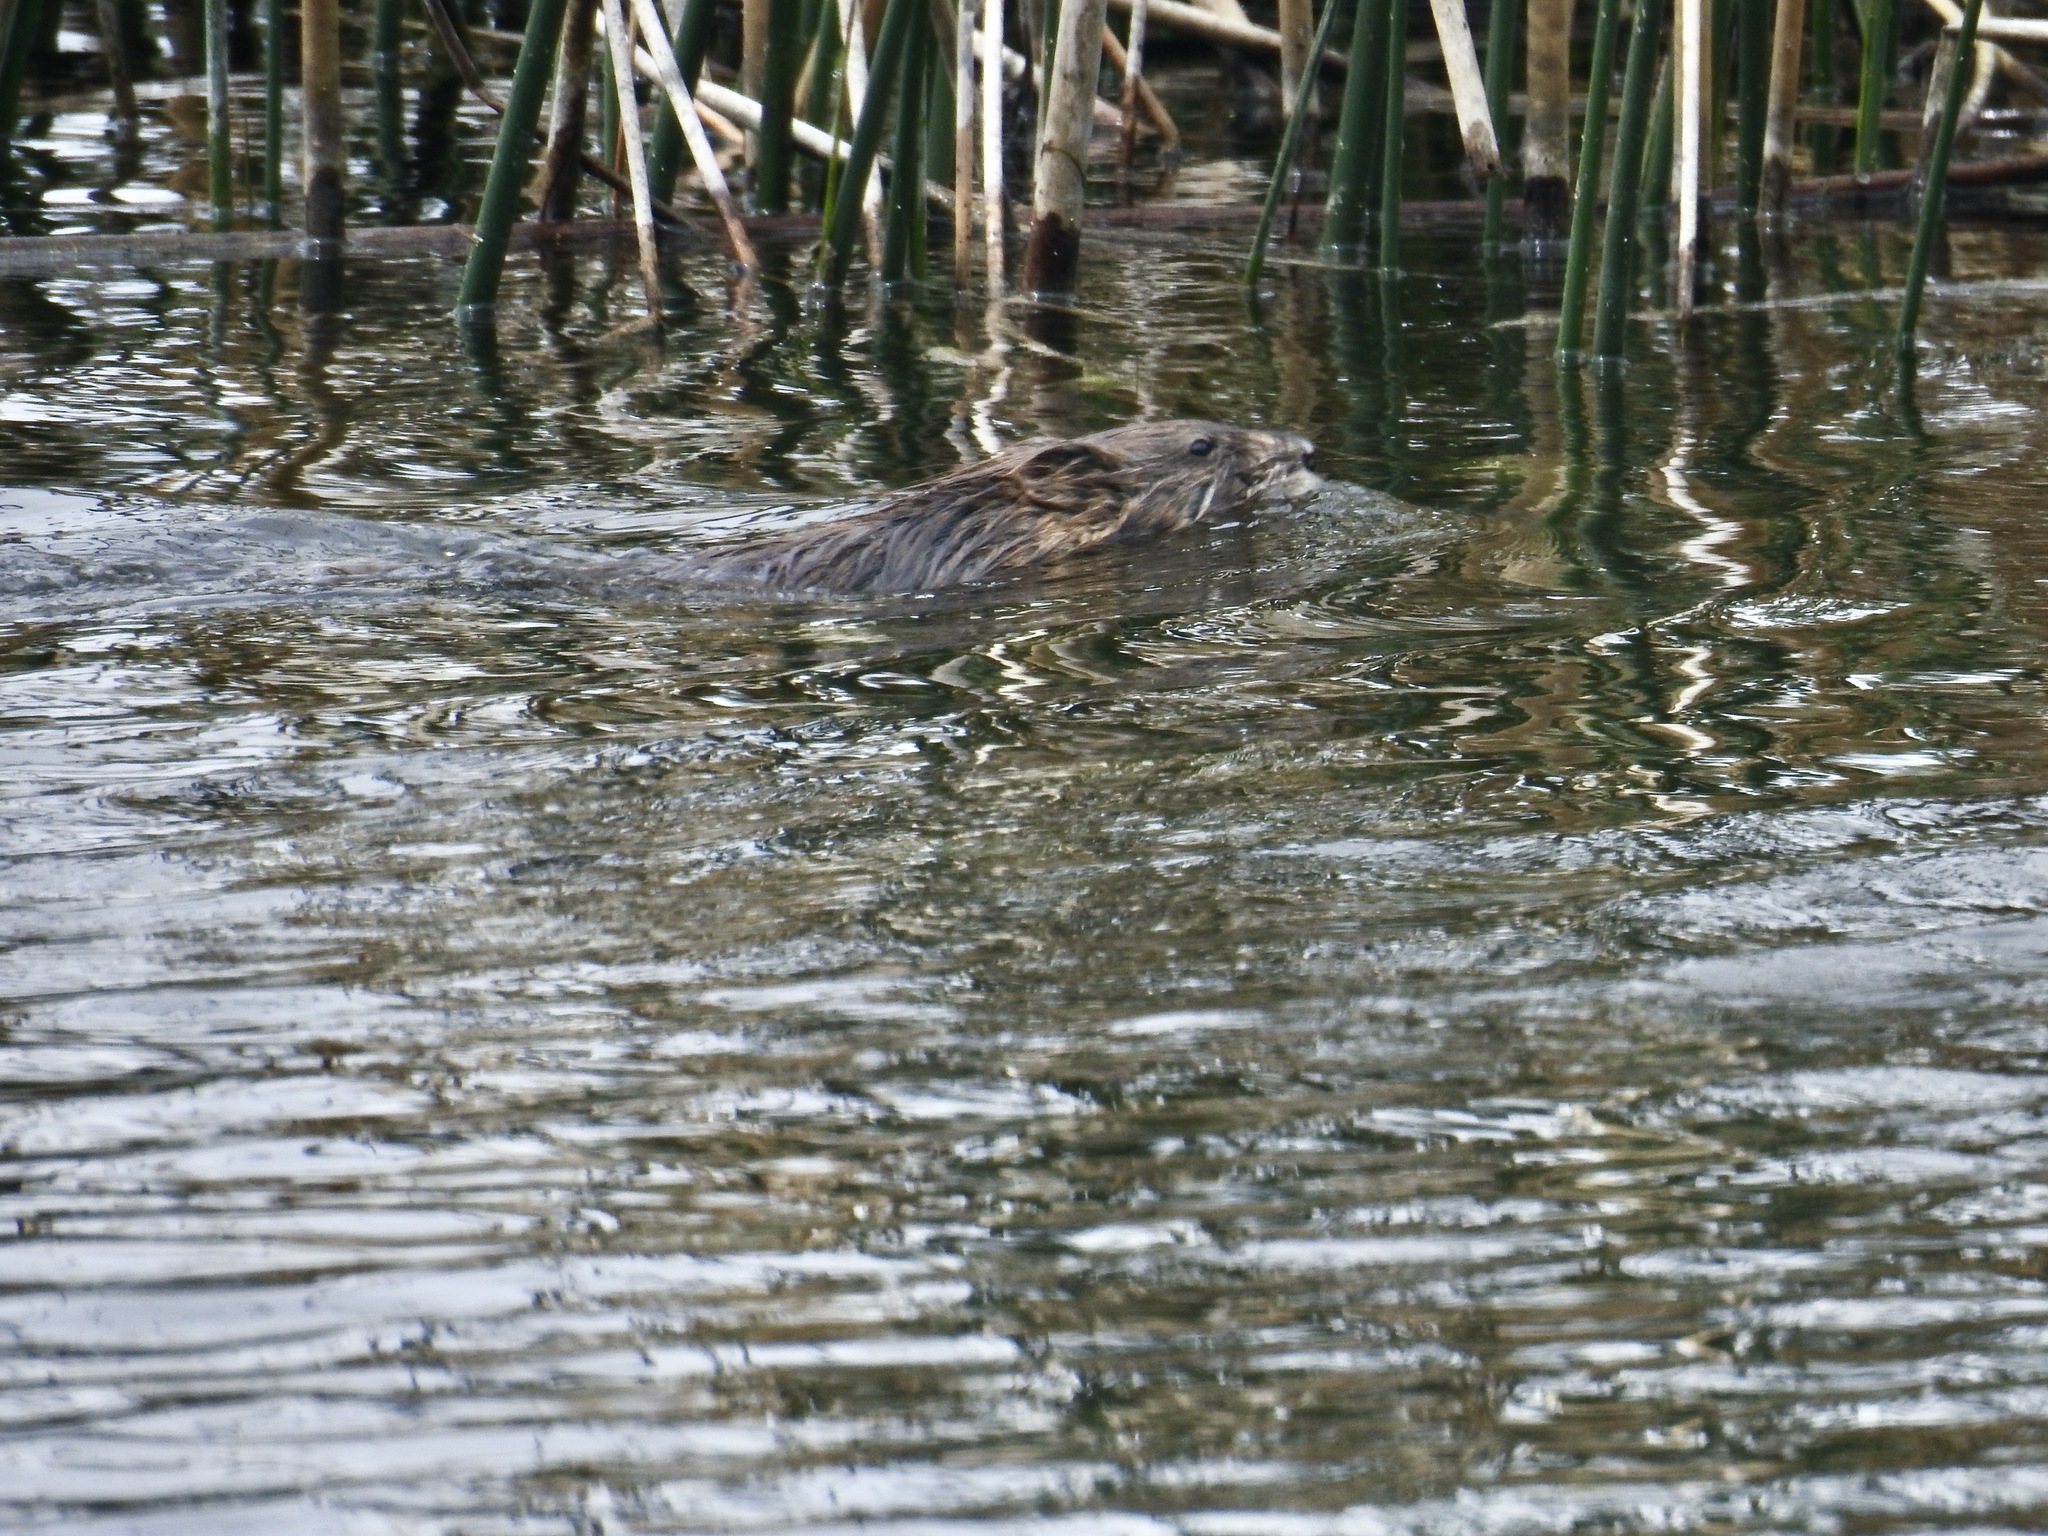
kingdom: Animalia
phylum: Chordata
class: Mammalia
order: Rodentia
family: Cricetidae
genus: Ondatra
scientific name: Ondatra zibethicus
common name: Muskrat
